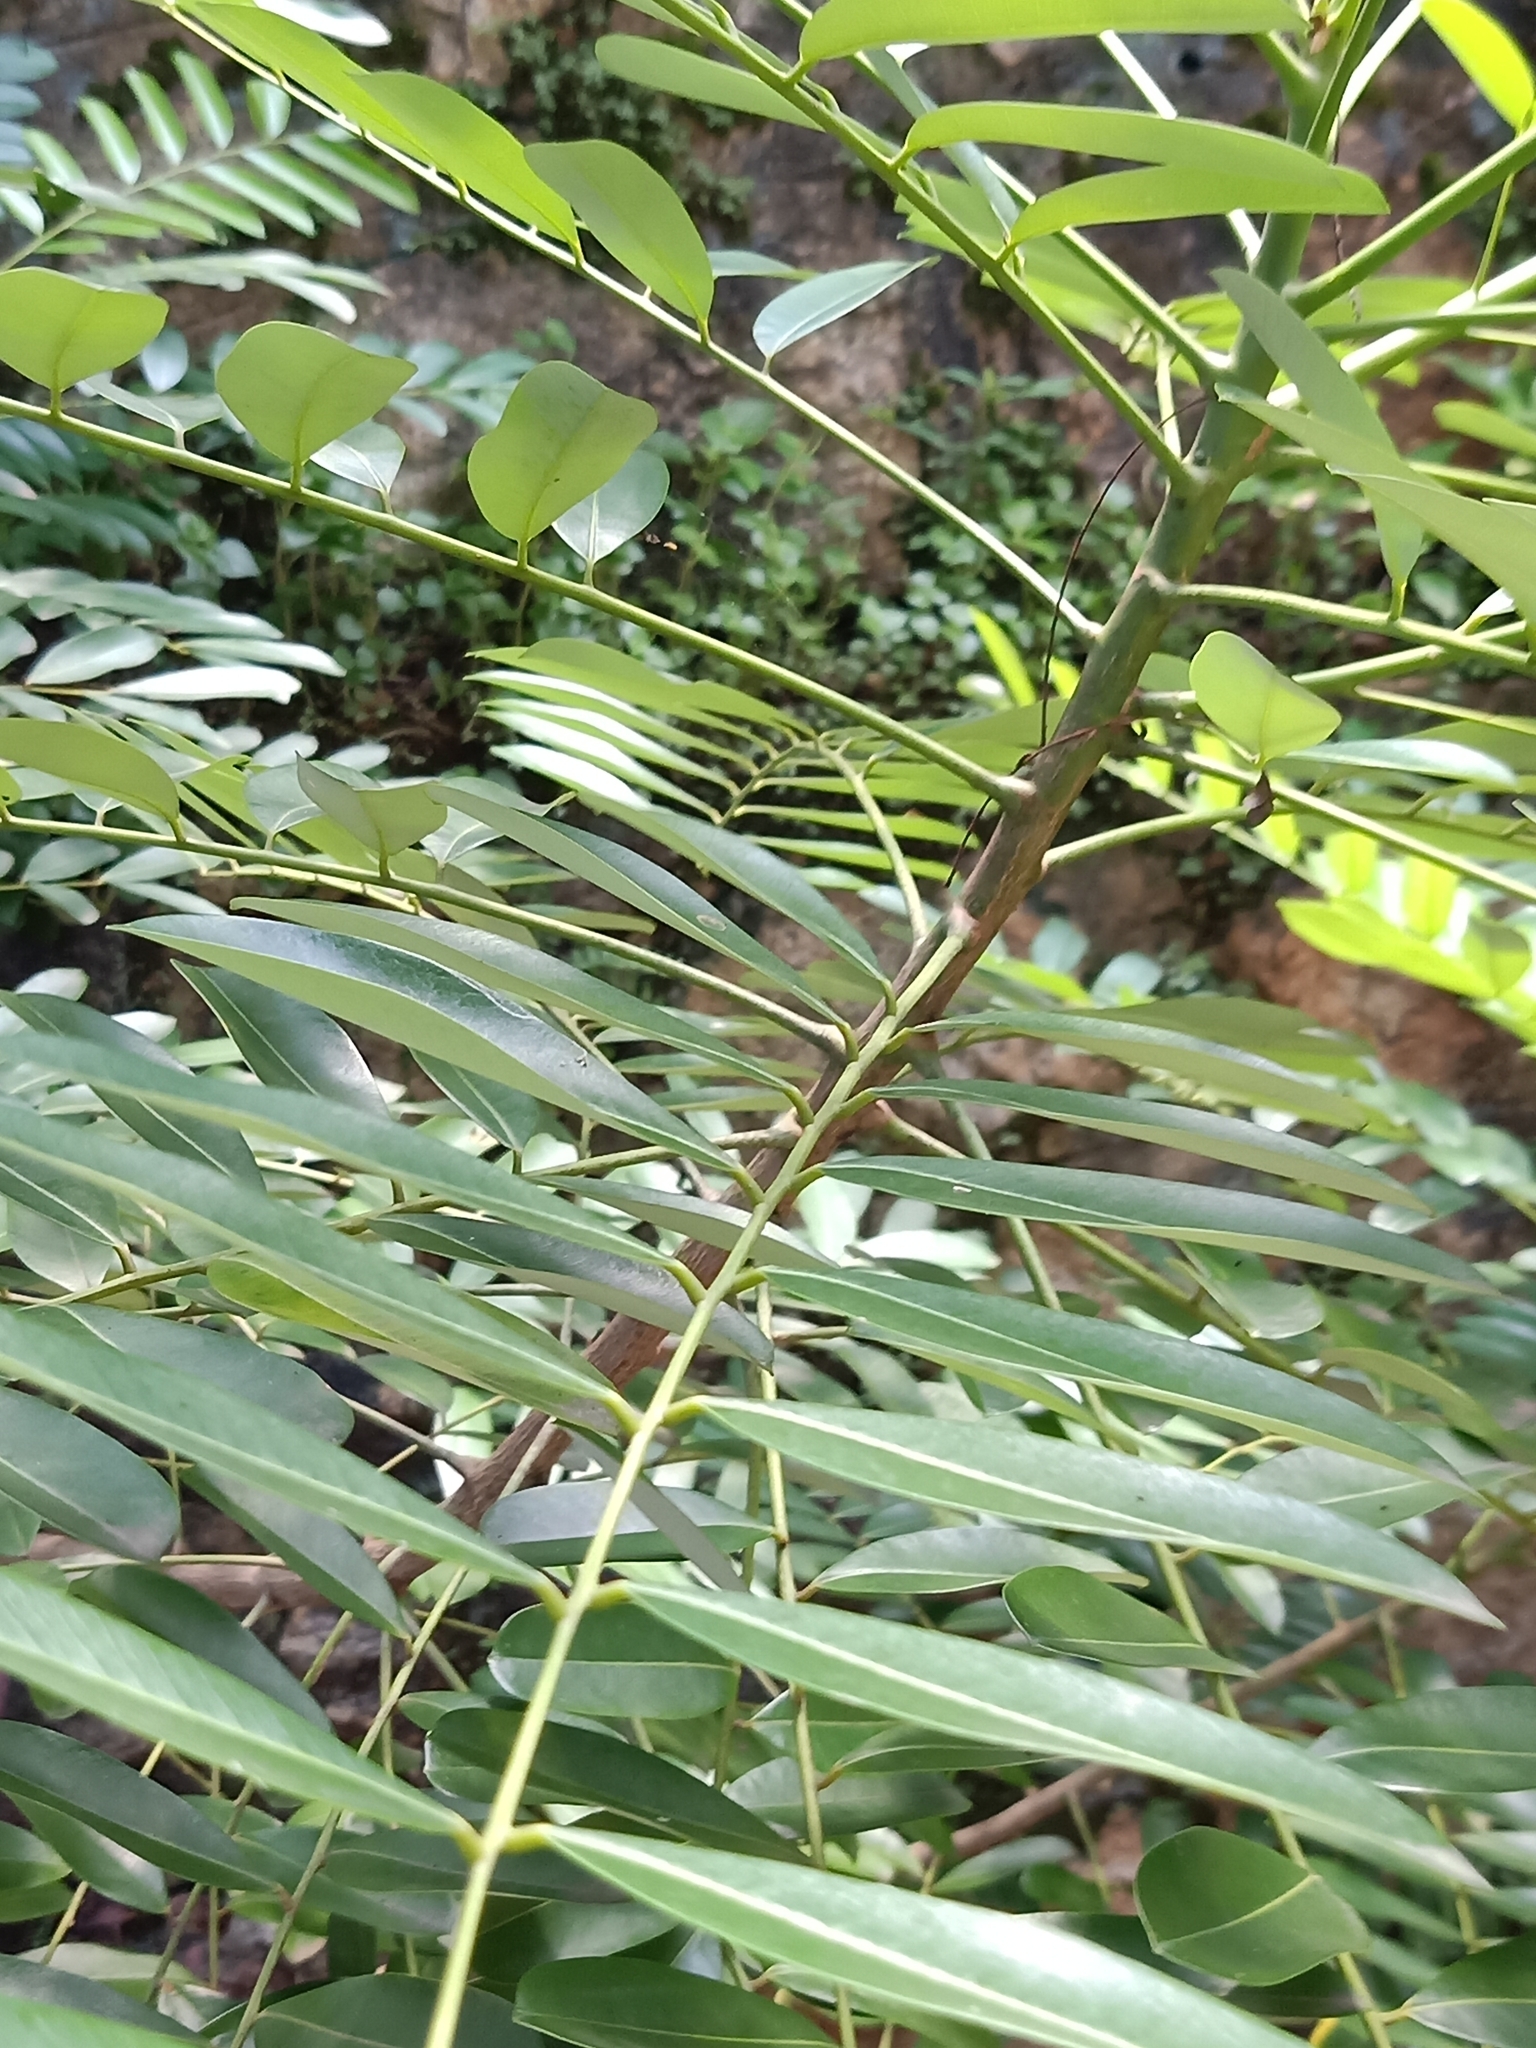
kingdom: Plantae
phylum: Tracheophyta
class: Magnoliopsida
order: Sapindales
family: Simaroubaceae
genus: Simarouba
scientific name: Simarouba amara
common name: Bitterwood
